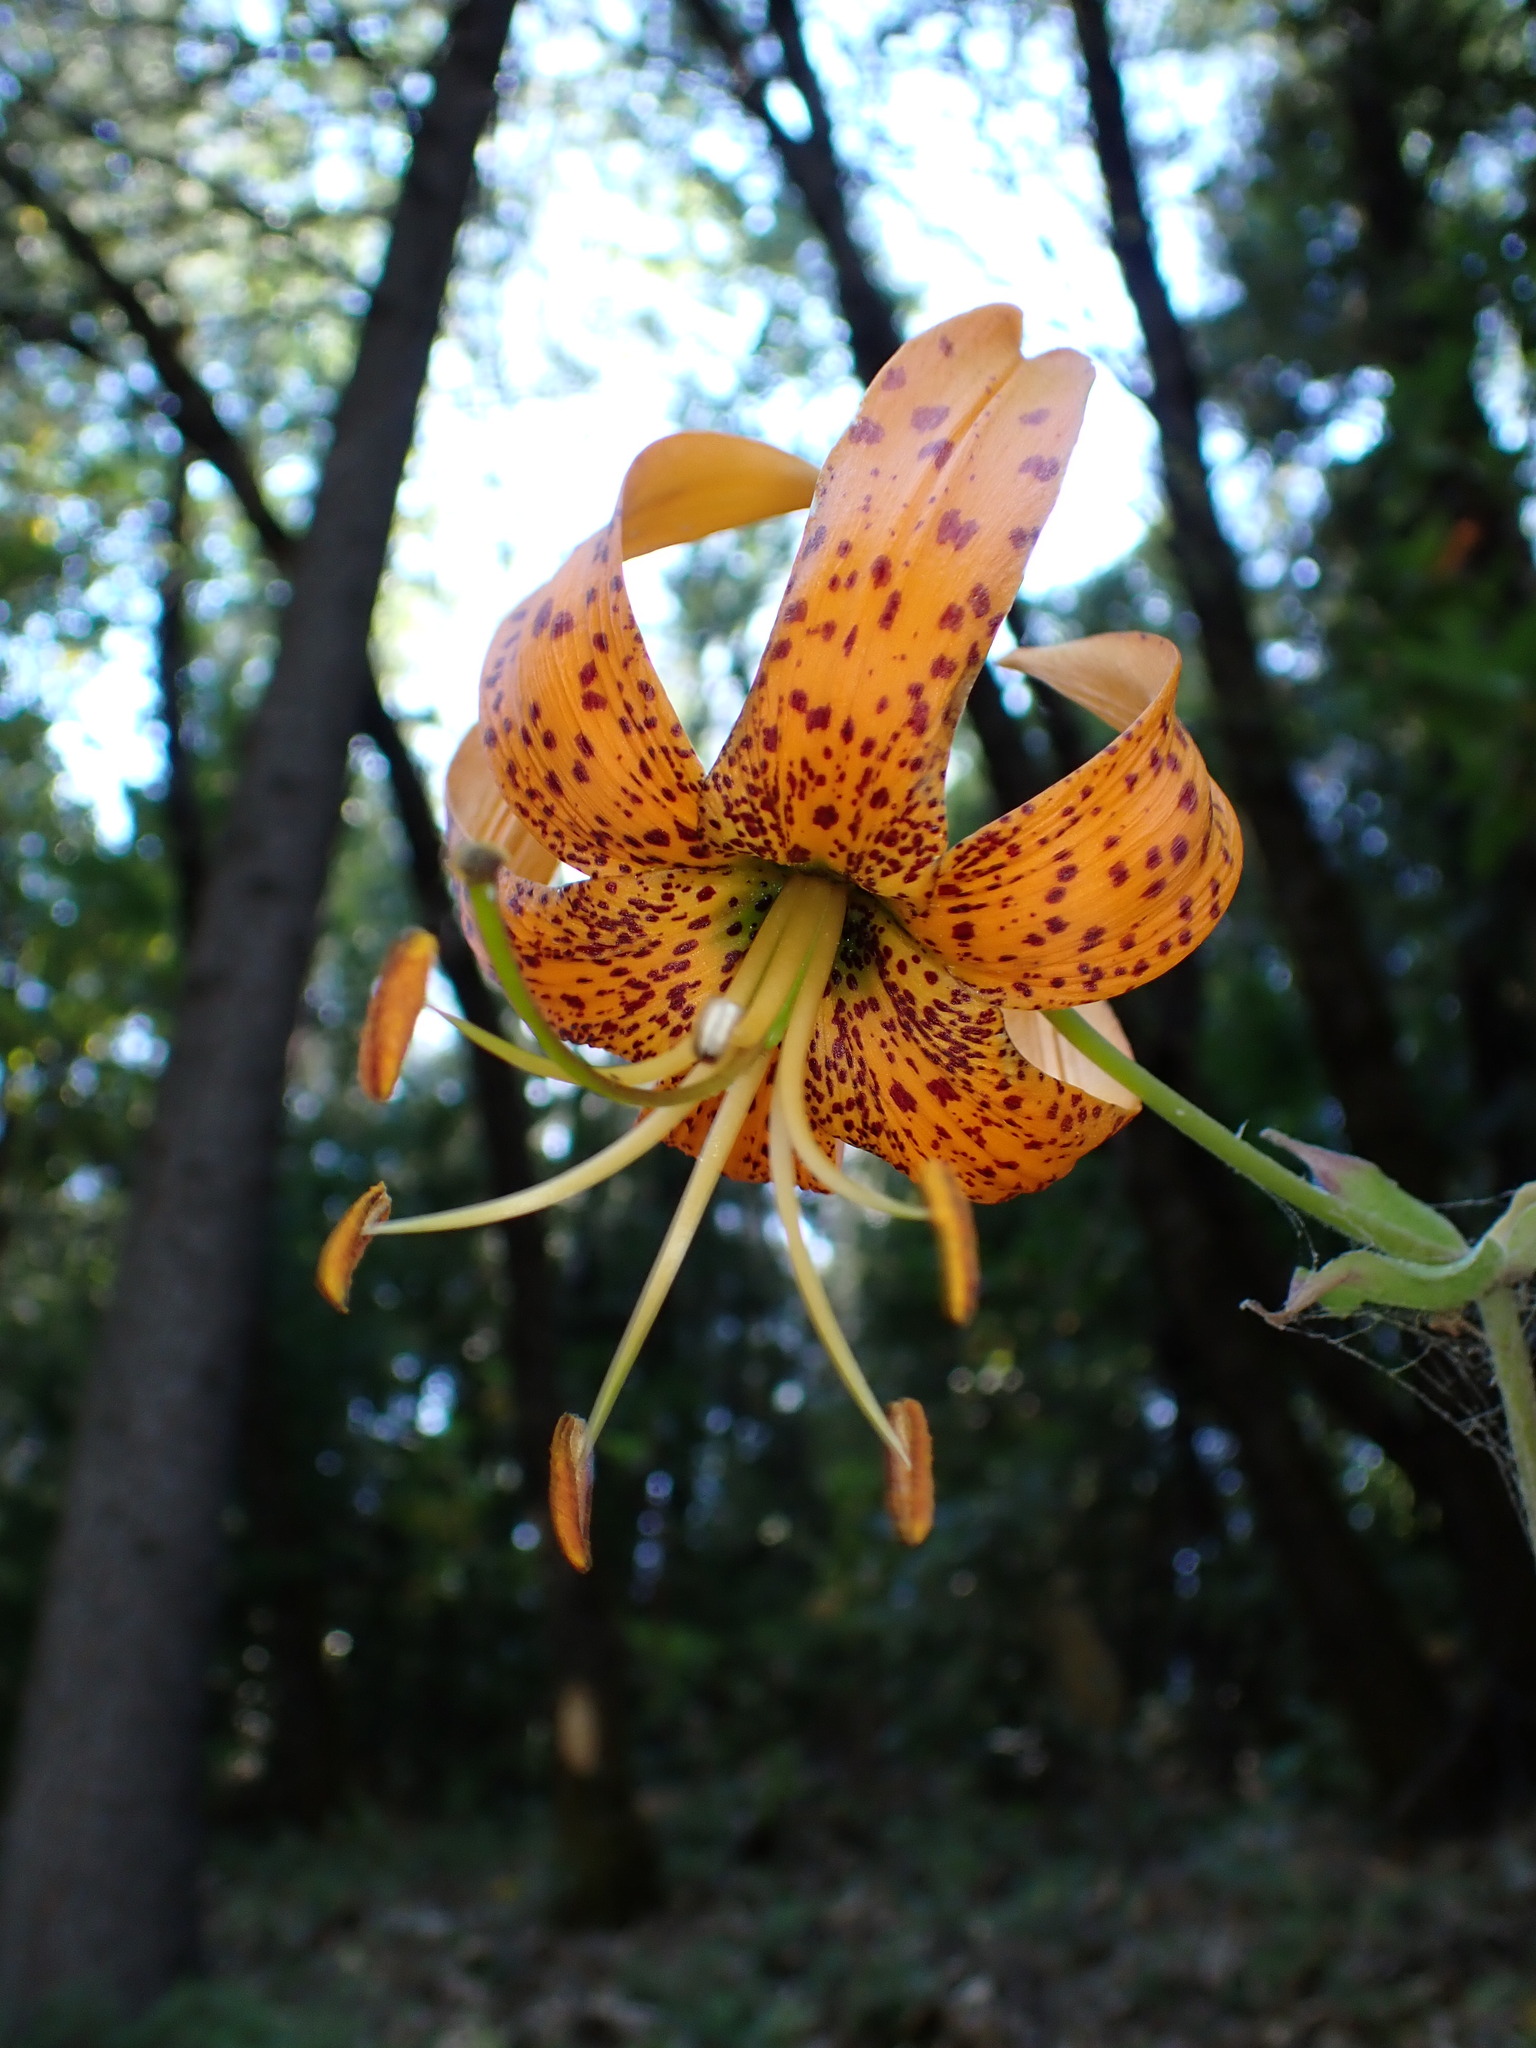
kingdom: Plantae
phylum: Tracheophyta
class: Liliopsida
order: Liliales
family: Liliaceae
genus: Lilium
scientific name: Lilium humboldtii
